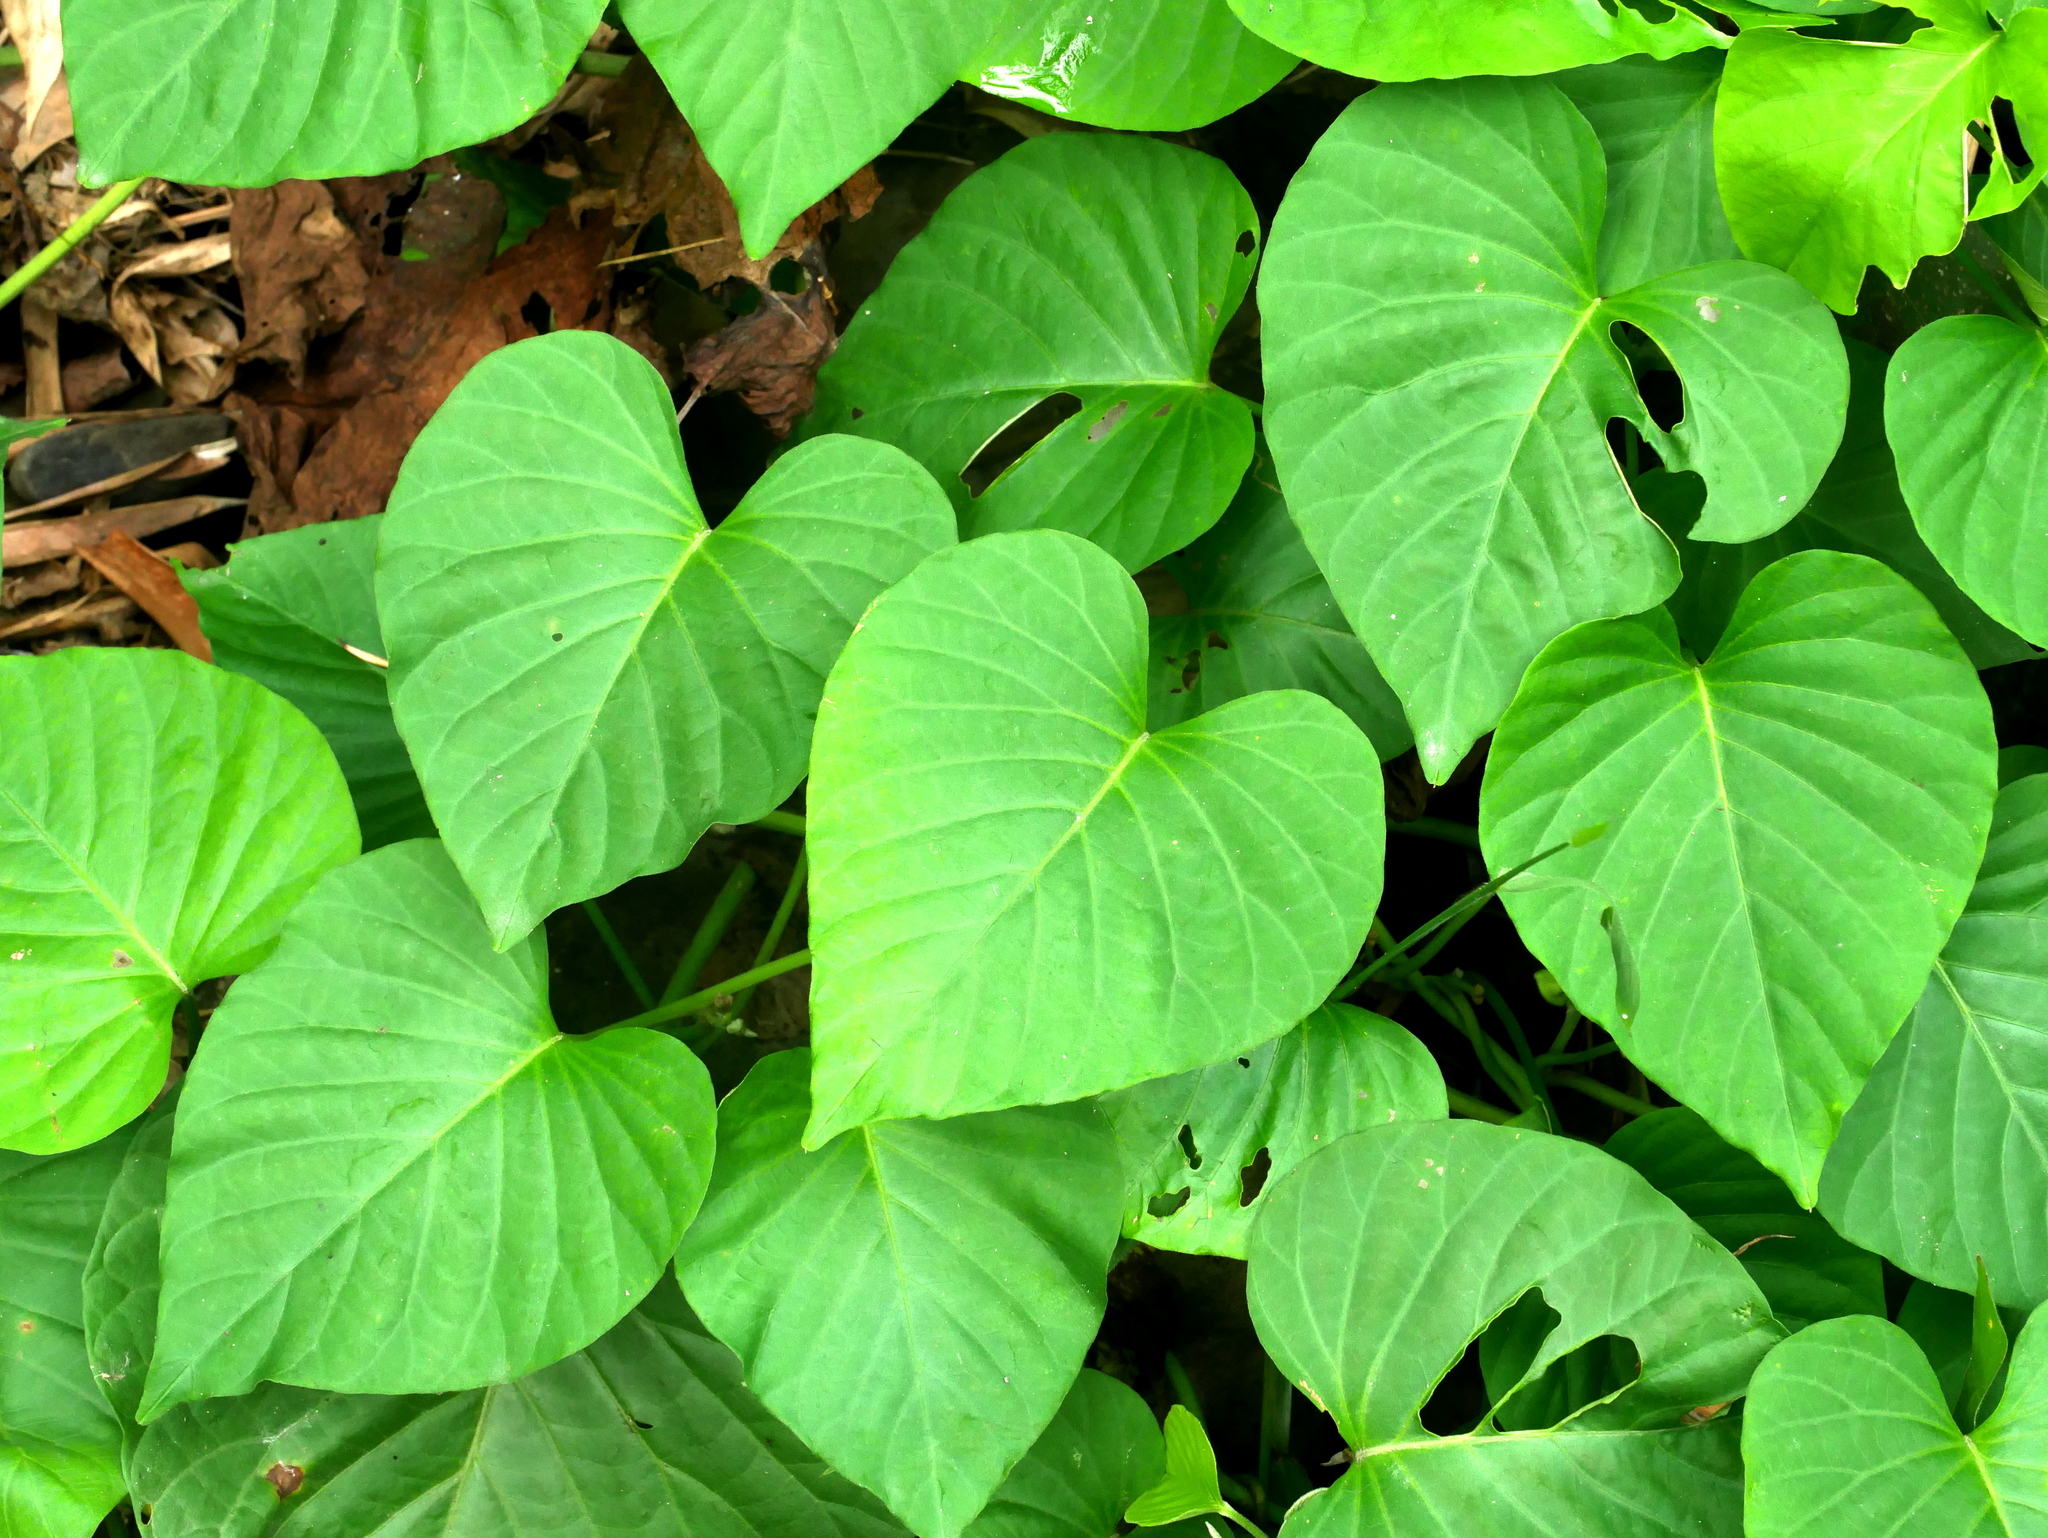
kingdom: Plantae
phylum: Tracheophyta
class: Magnoliopsida
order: Solanales
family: Convolvulaceae
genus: Stictocardia
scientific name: Stictocardia tiliifolia
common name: Spottedheart
